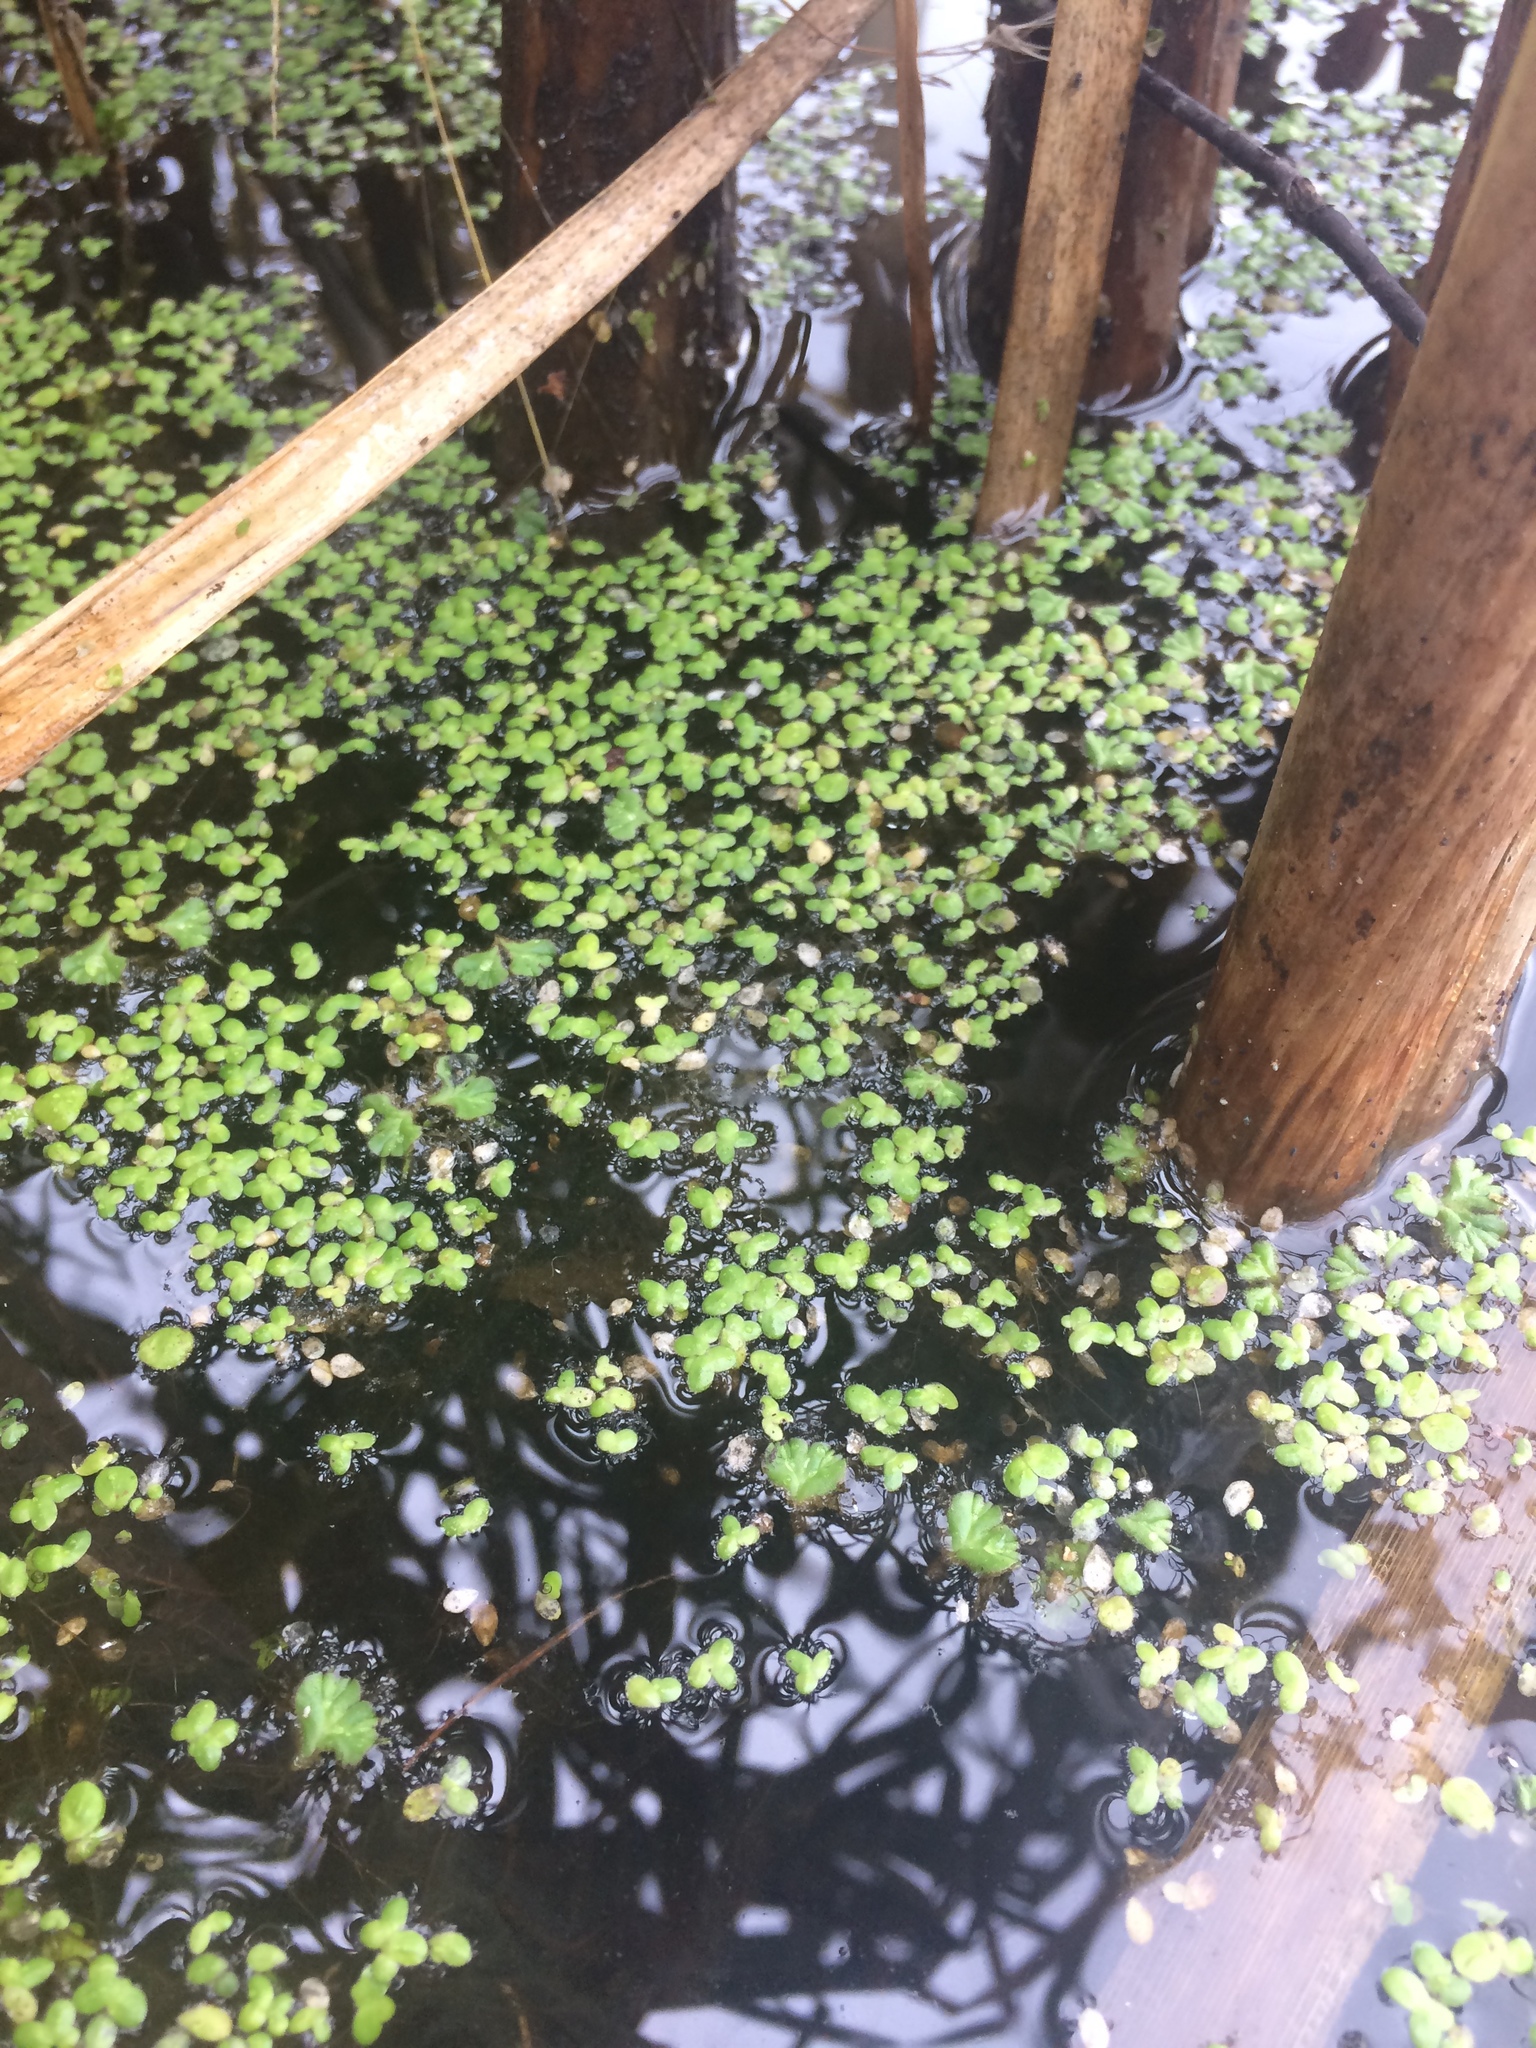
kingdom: Plantae
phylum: Tracheophyta
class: Liliopsida
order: Alismatales
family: Araceae
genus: Lemna
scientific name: Lemna minor
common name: Common duckweed
